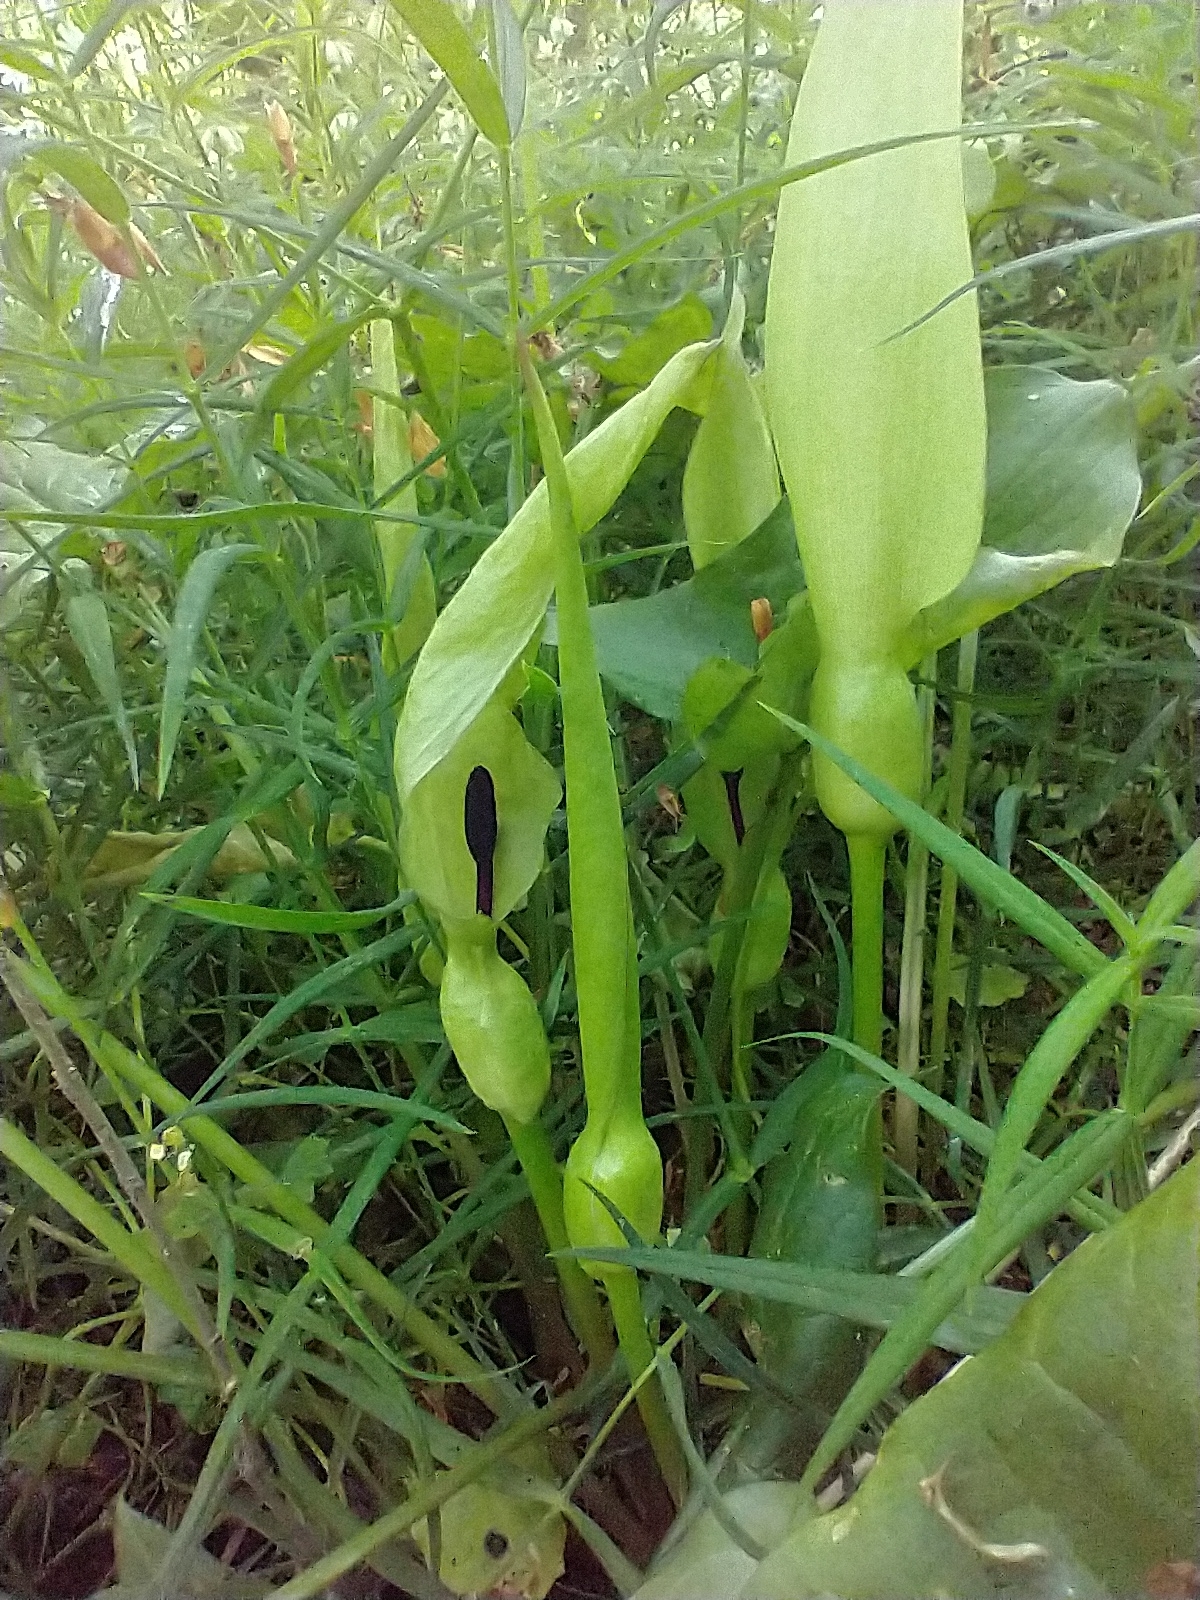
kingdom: Plantae
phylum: Tracheophyta
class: Liliopsida
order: Alismatales
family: Araceae
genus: Arum
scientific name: Arum maculatum
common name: Lords-and-ladies
